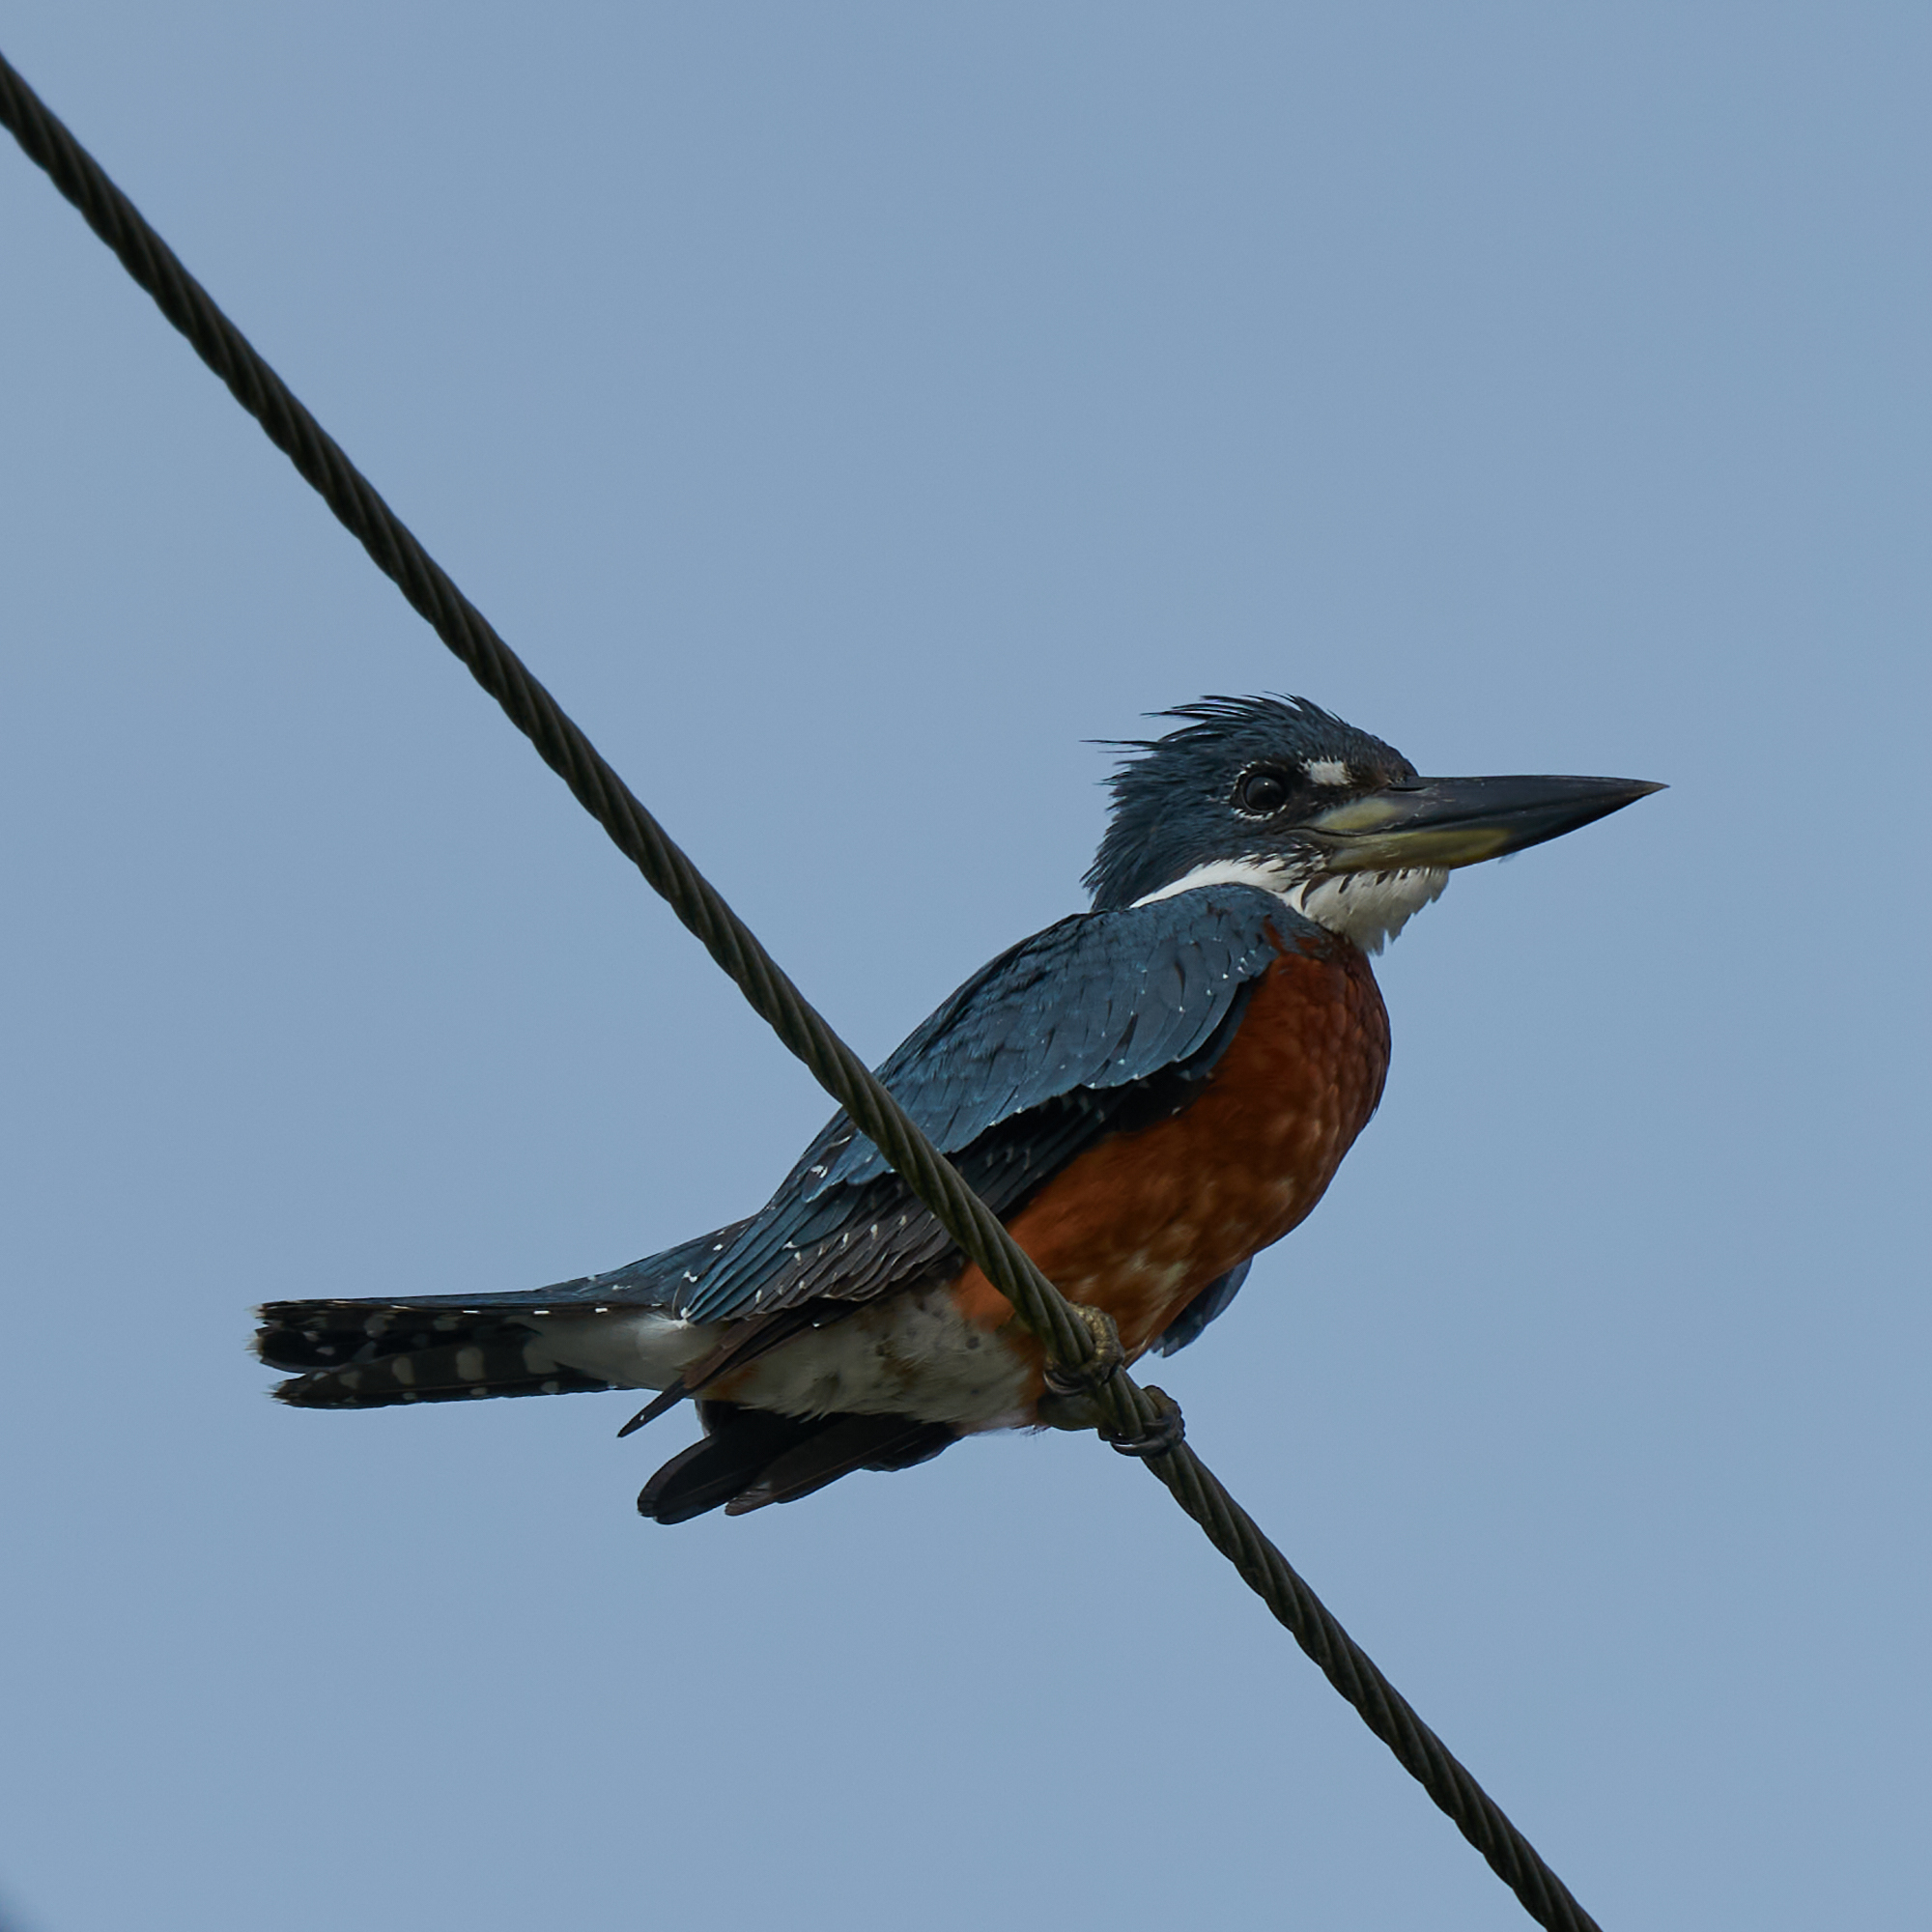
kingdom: Animalia
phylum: Chordata
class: Aves
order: Coraciiformes
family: Alcedinidae
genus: Megaceryle
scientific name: Megaceryle torquata
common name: Ringed kingfisher
